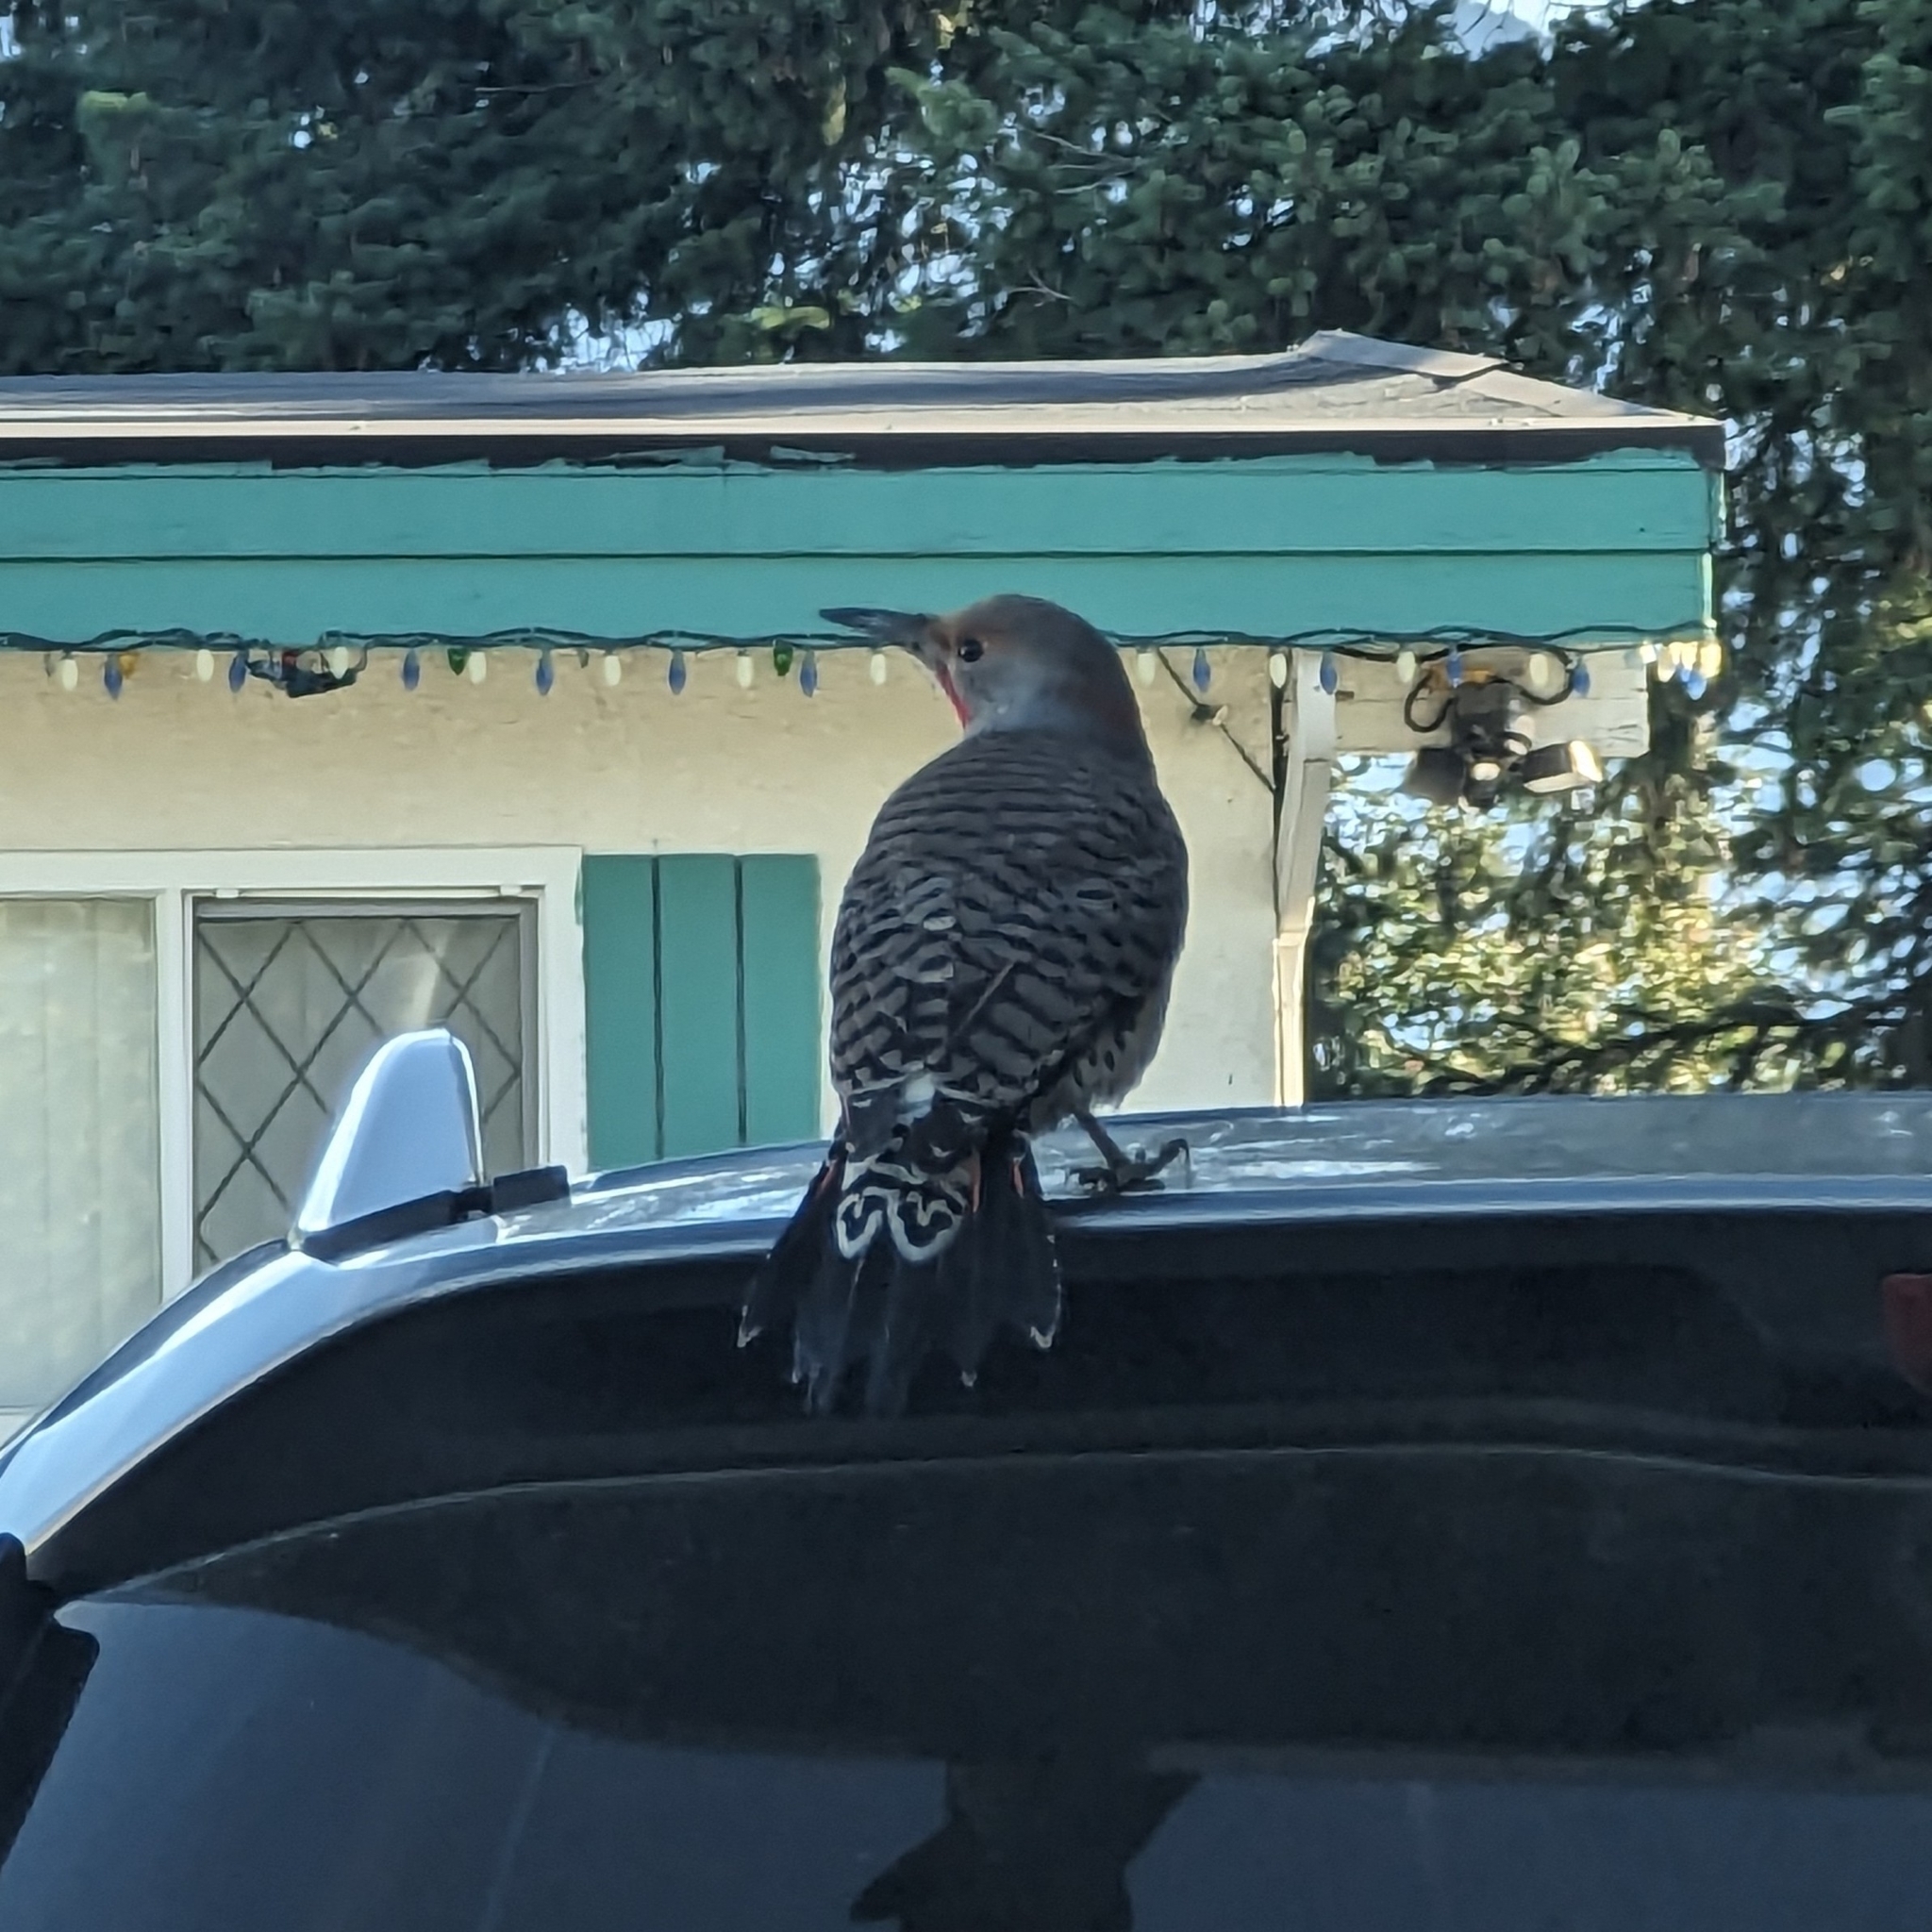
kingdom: Animalia
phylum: Chordata
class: Aves
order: Piciformes
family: Picidae
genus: Colaptes
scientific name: Colaptes auratus
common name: Northern flicker
